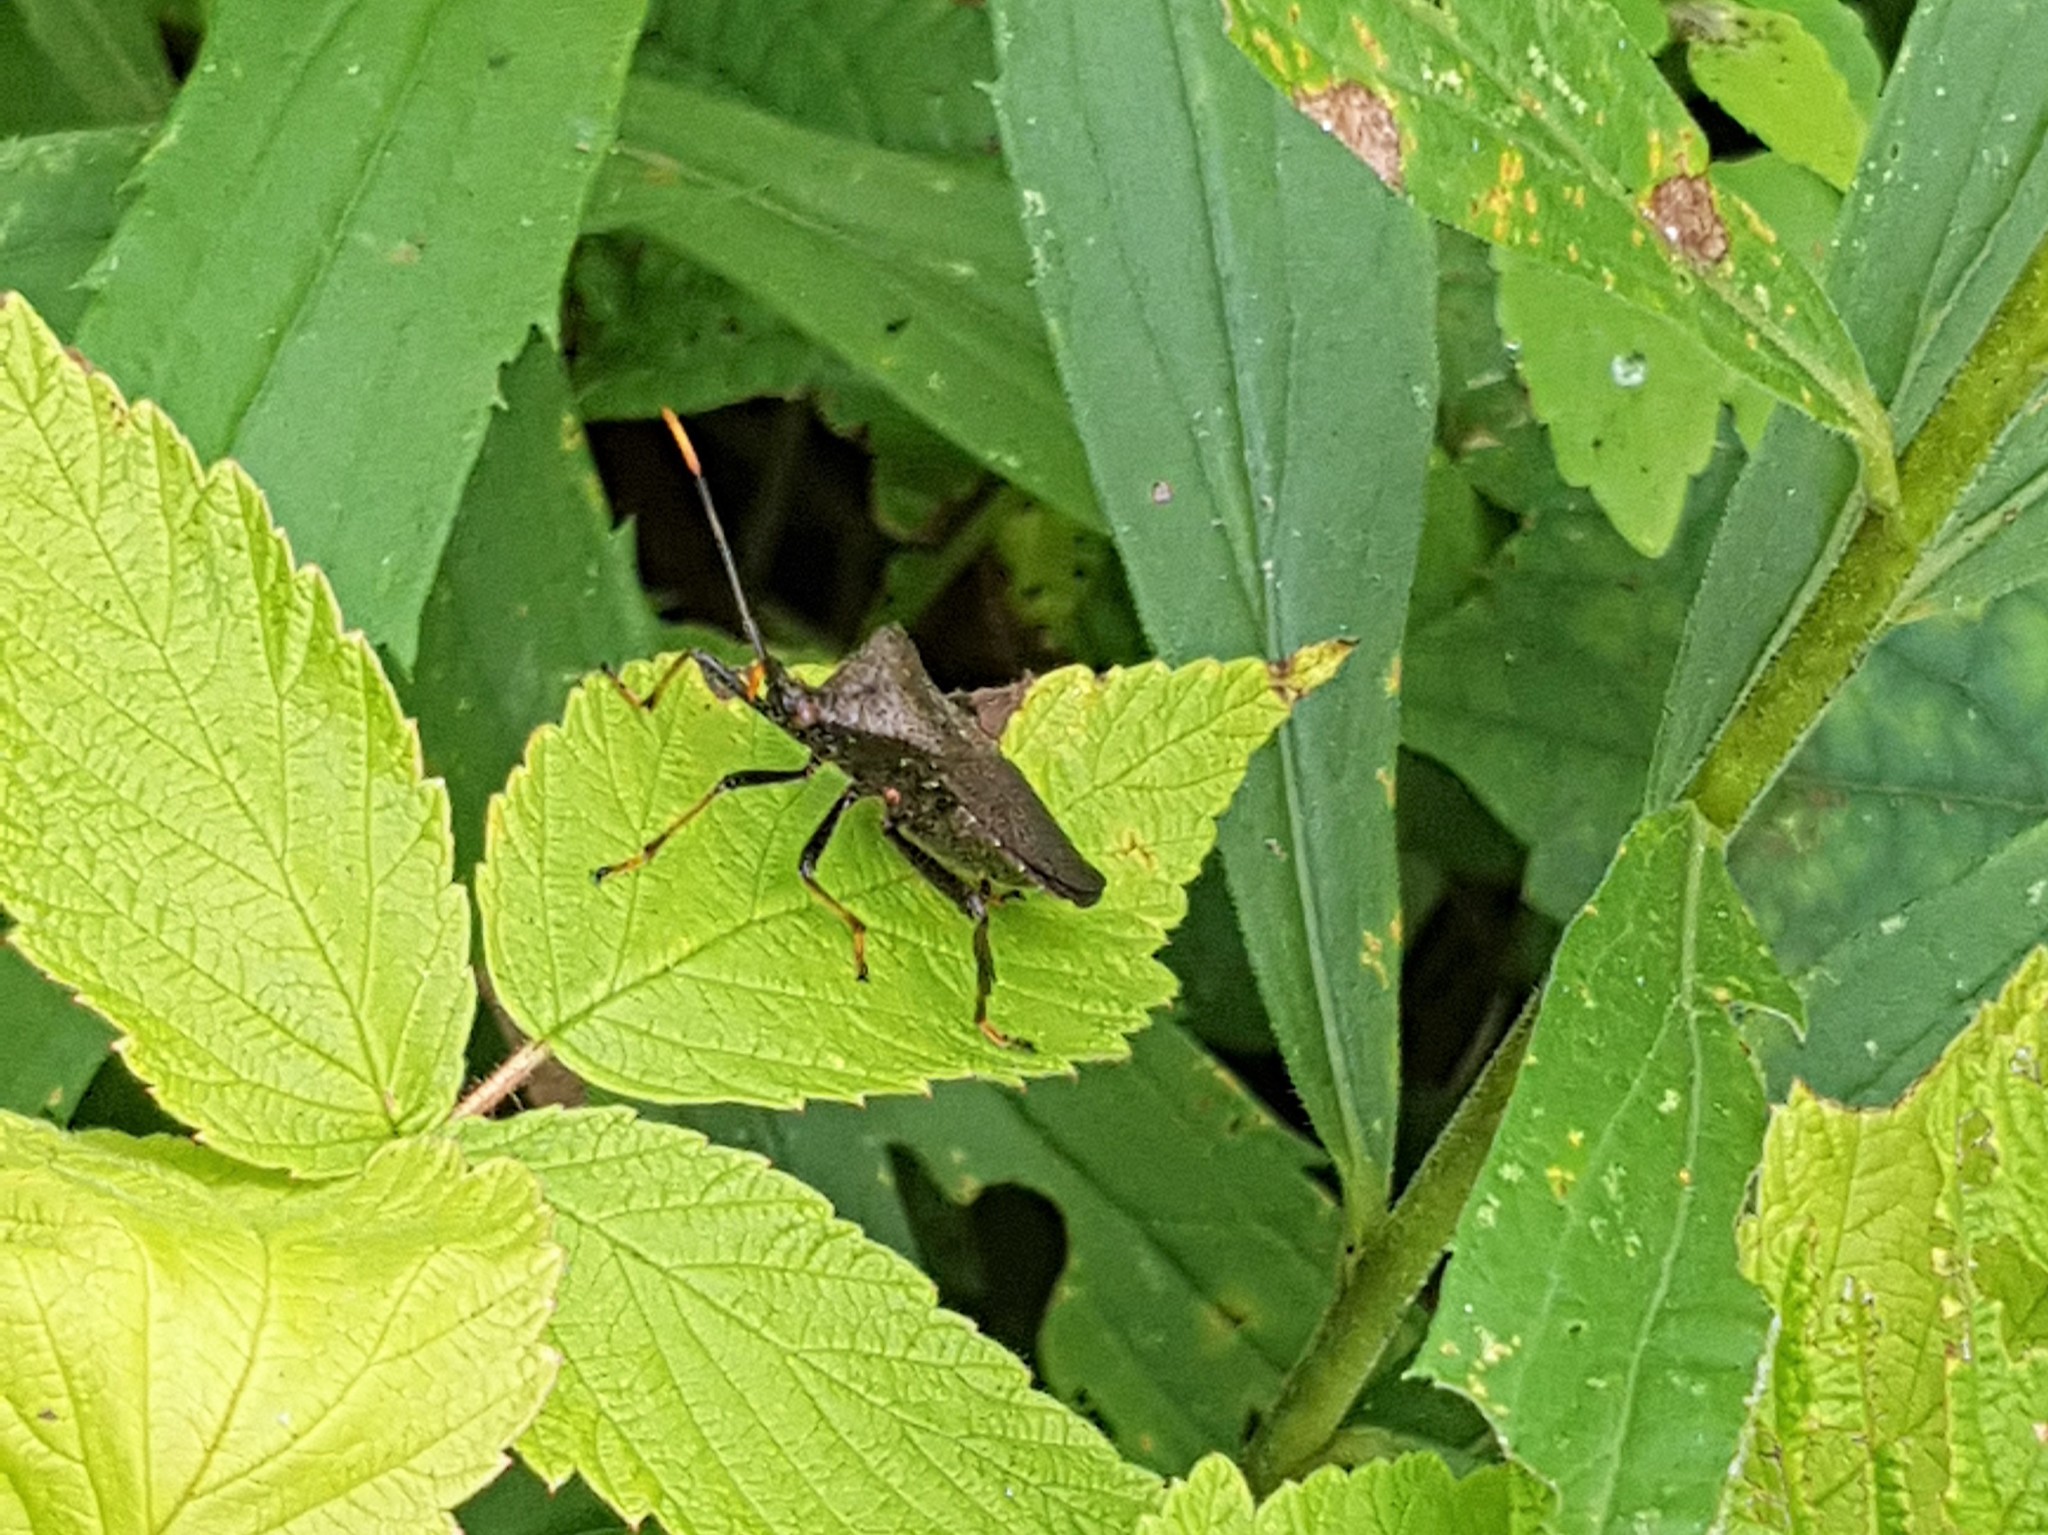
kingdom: Animalia
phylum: Arthropoda
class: Insecta
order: Hemiptera
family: Coreidae
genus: Acanthocephala
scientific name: Acanthocephala terminalis
